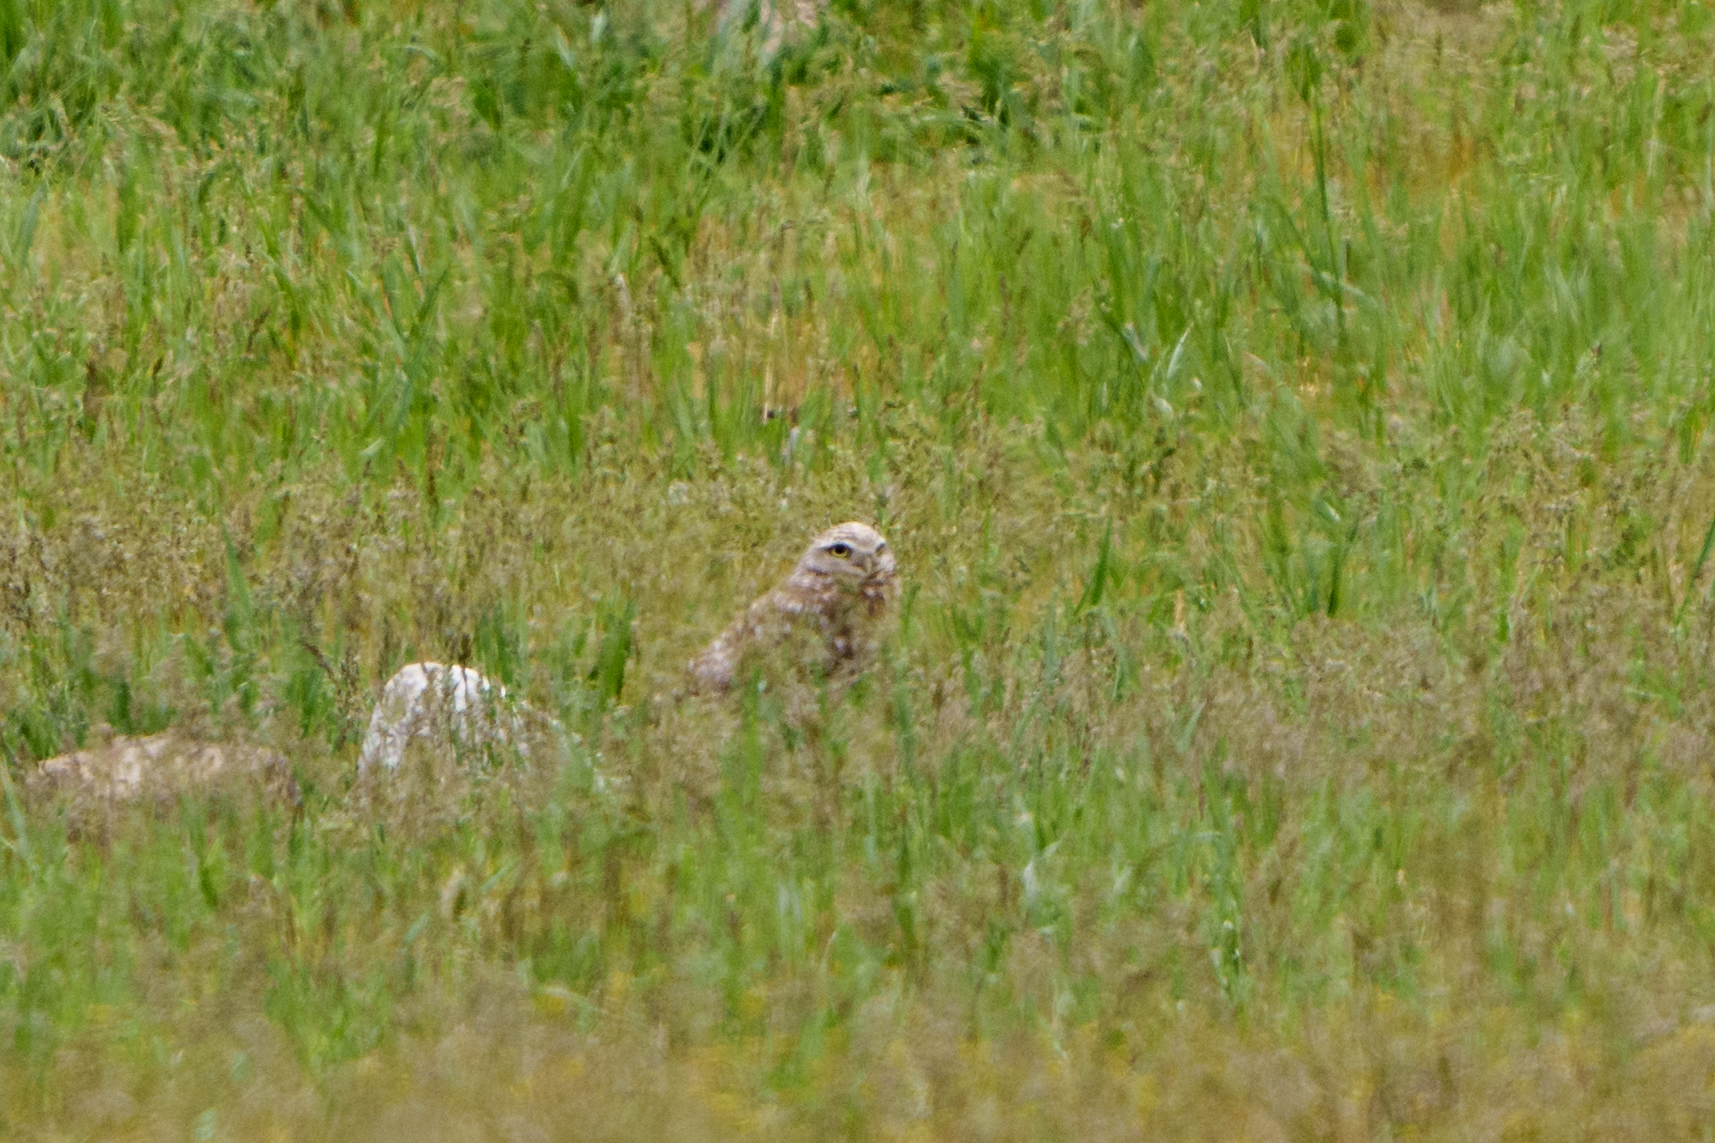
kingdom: Animalia
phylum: Chordata
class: Aves
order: Strigiformes
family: Strigidae
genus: Athene
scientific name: Athene cunicularia
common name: Burrowing owl
